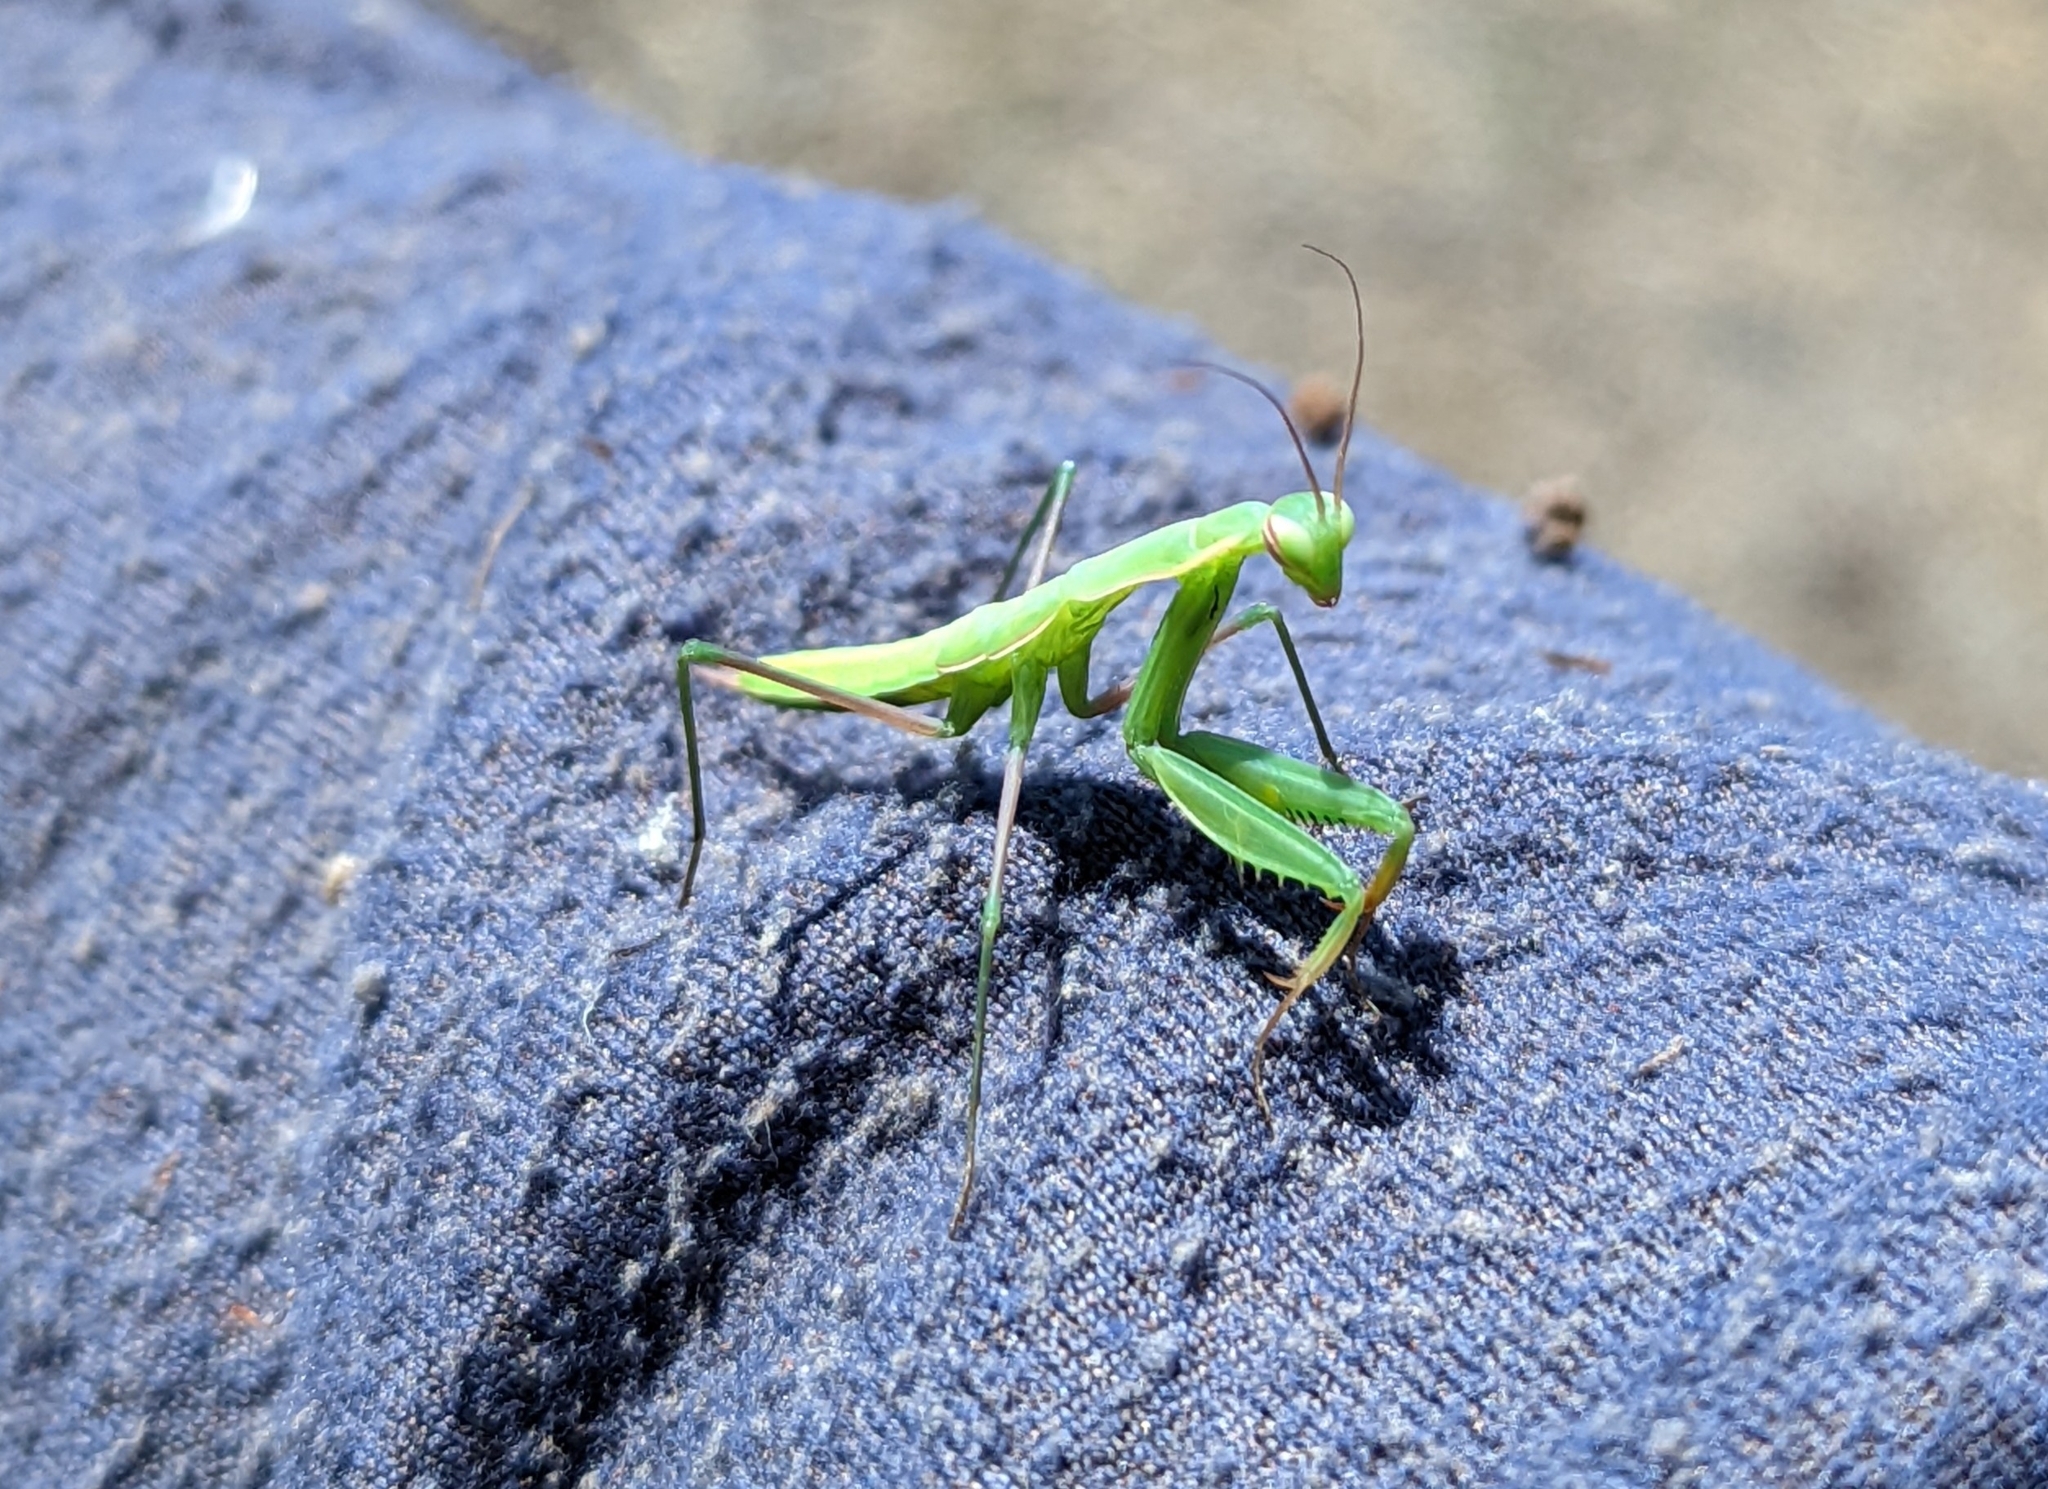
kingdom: Animalia
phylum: Arthropoda
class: Insecta
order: Mantodea
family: Mantidae
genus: Mantis
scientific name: Mantis religiosa
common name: Praying mantis
